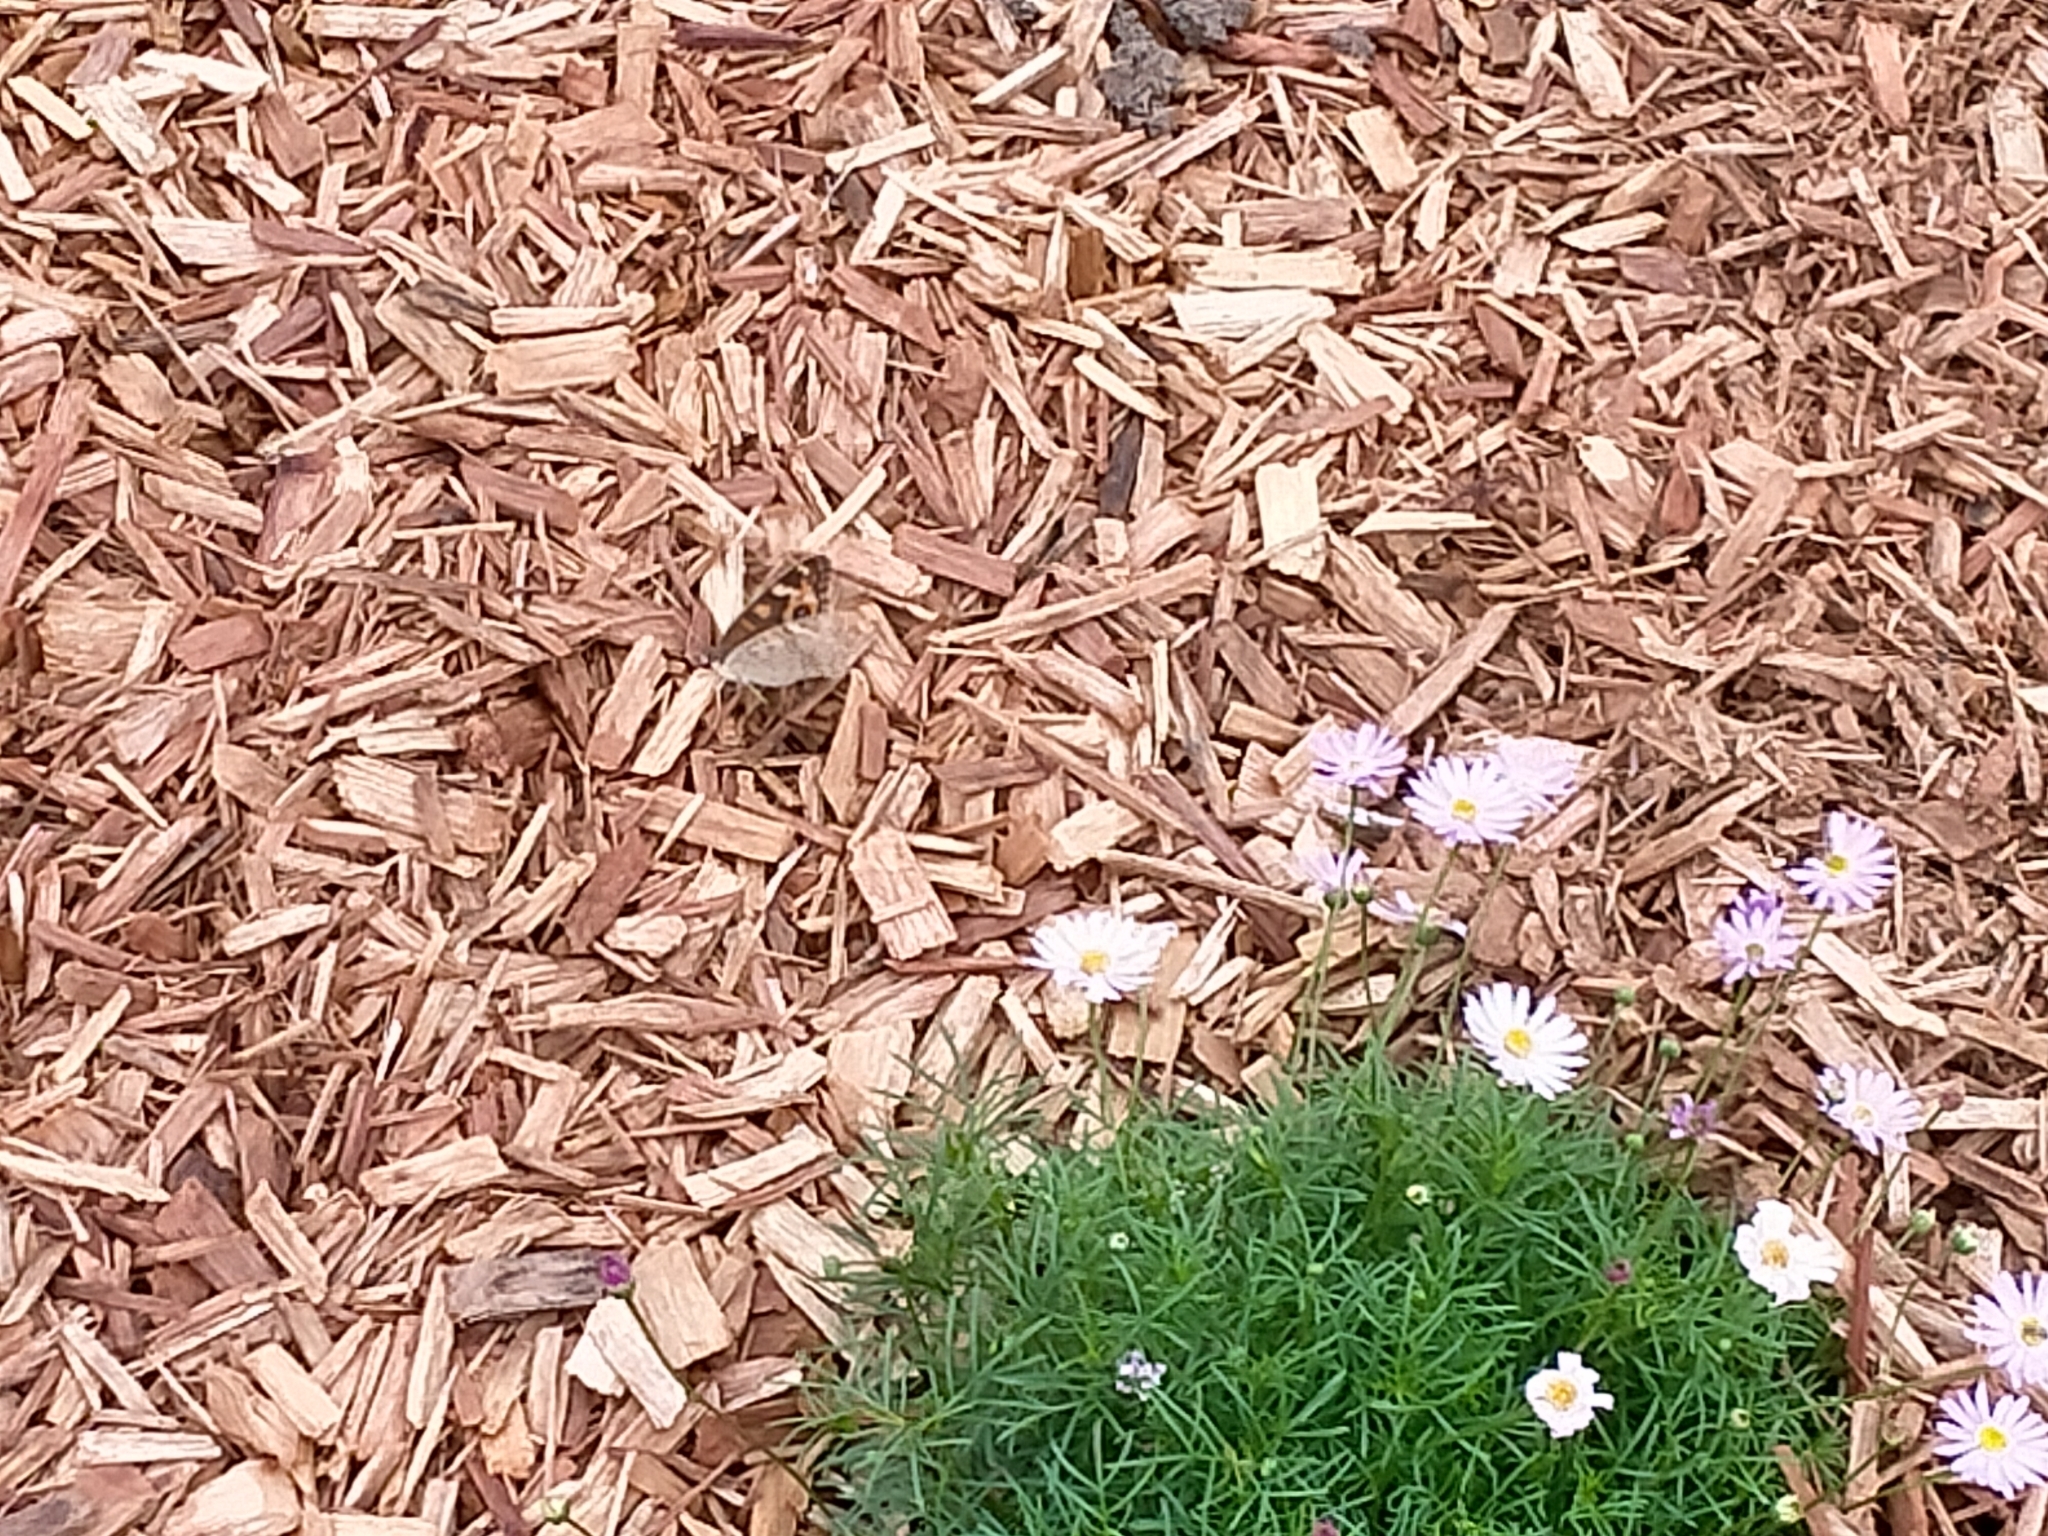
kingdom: Animalia
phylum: Arthropoda
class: Insecta
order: Lepidoptera
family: Nymphalidae
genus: Junonia
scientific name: Junonia villida
